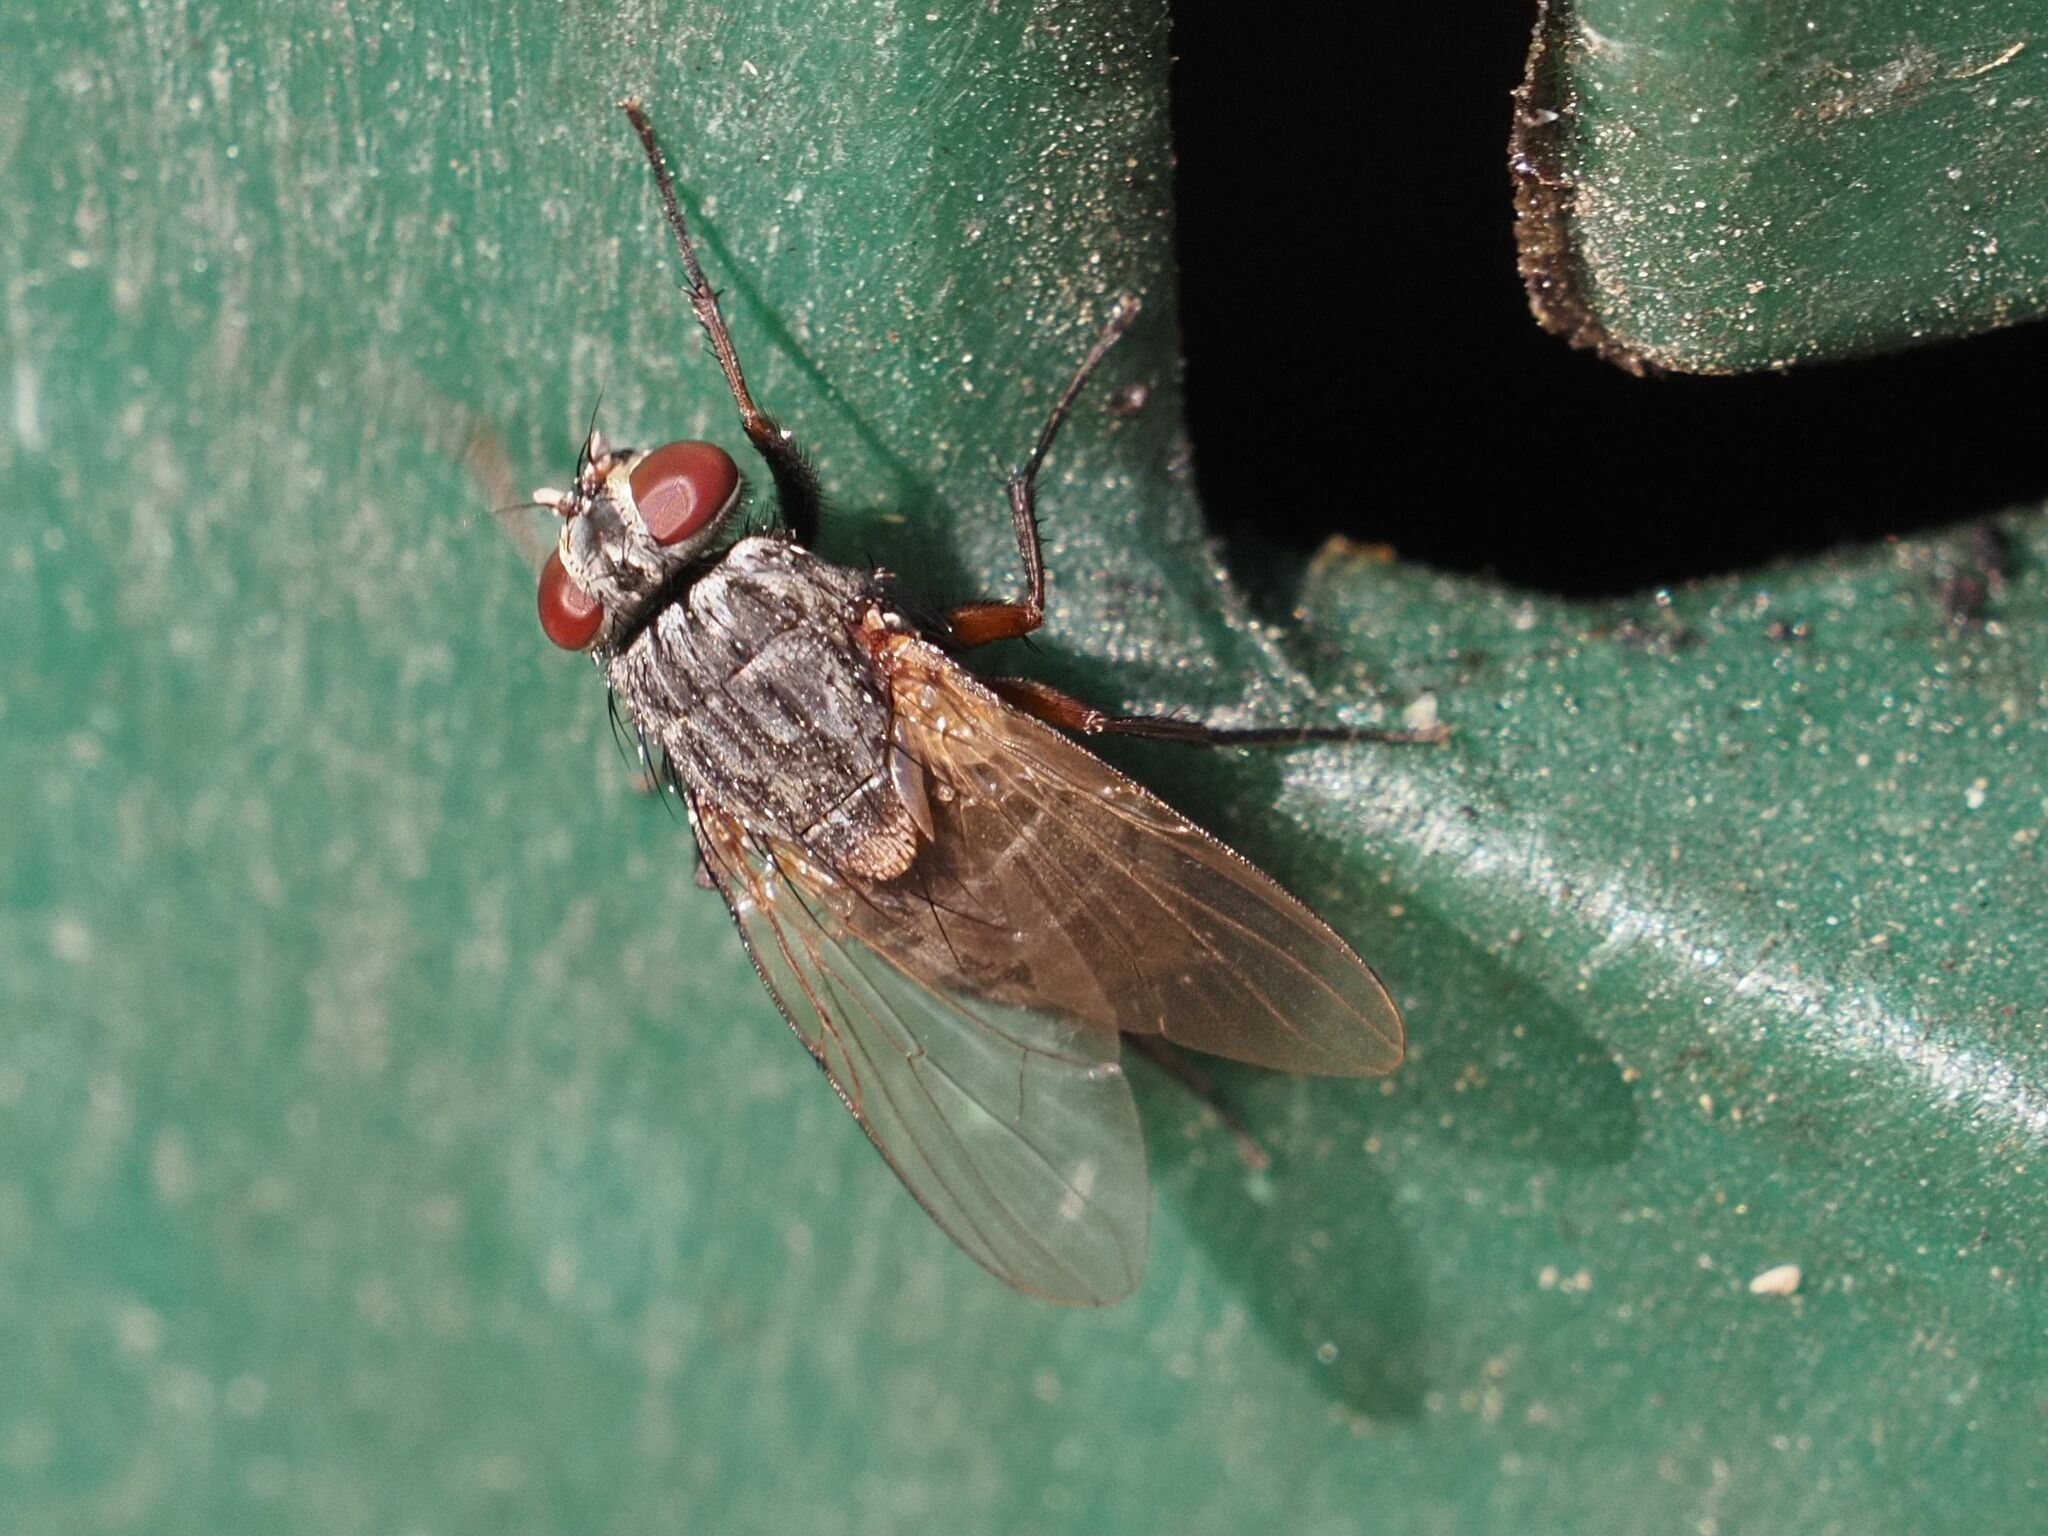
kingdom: Animalia
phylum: Arthropoda
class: Insecta
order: Diptera
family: Muscidae
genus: Muscina
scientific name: Muscina stabulans
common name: False stable fly
